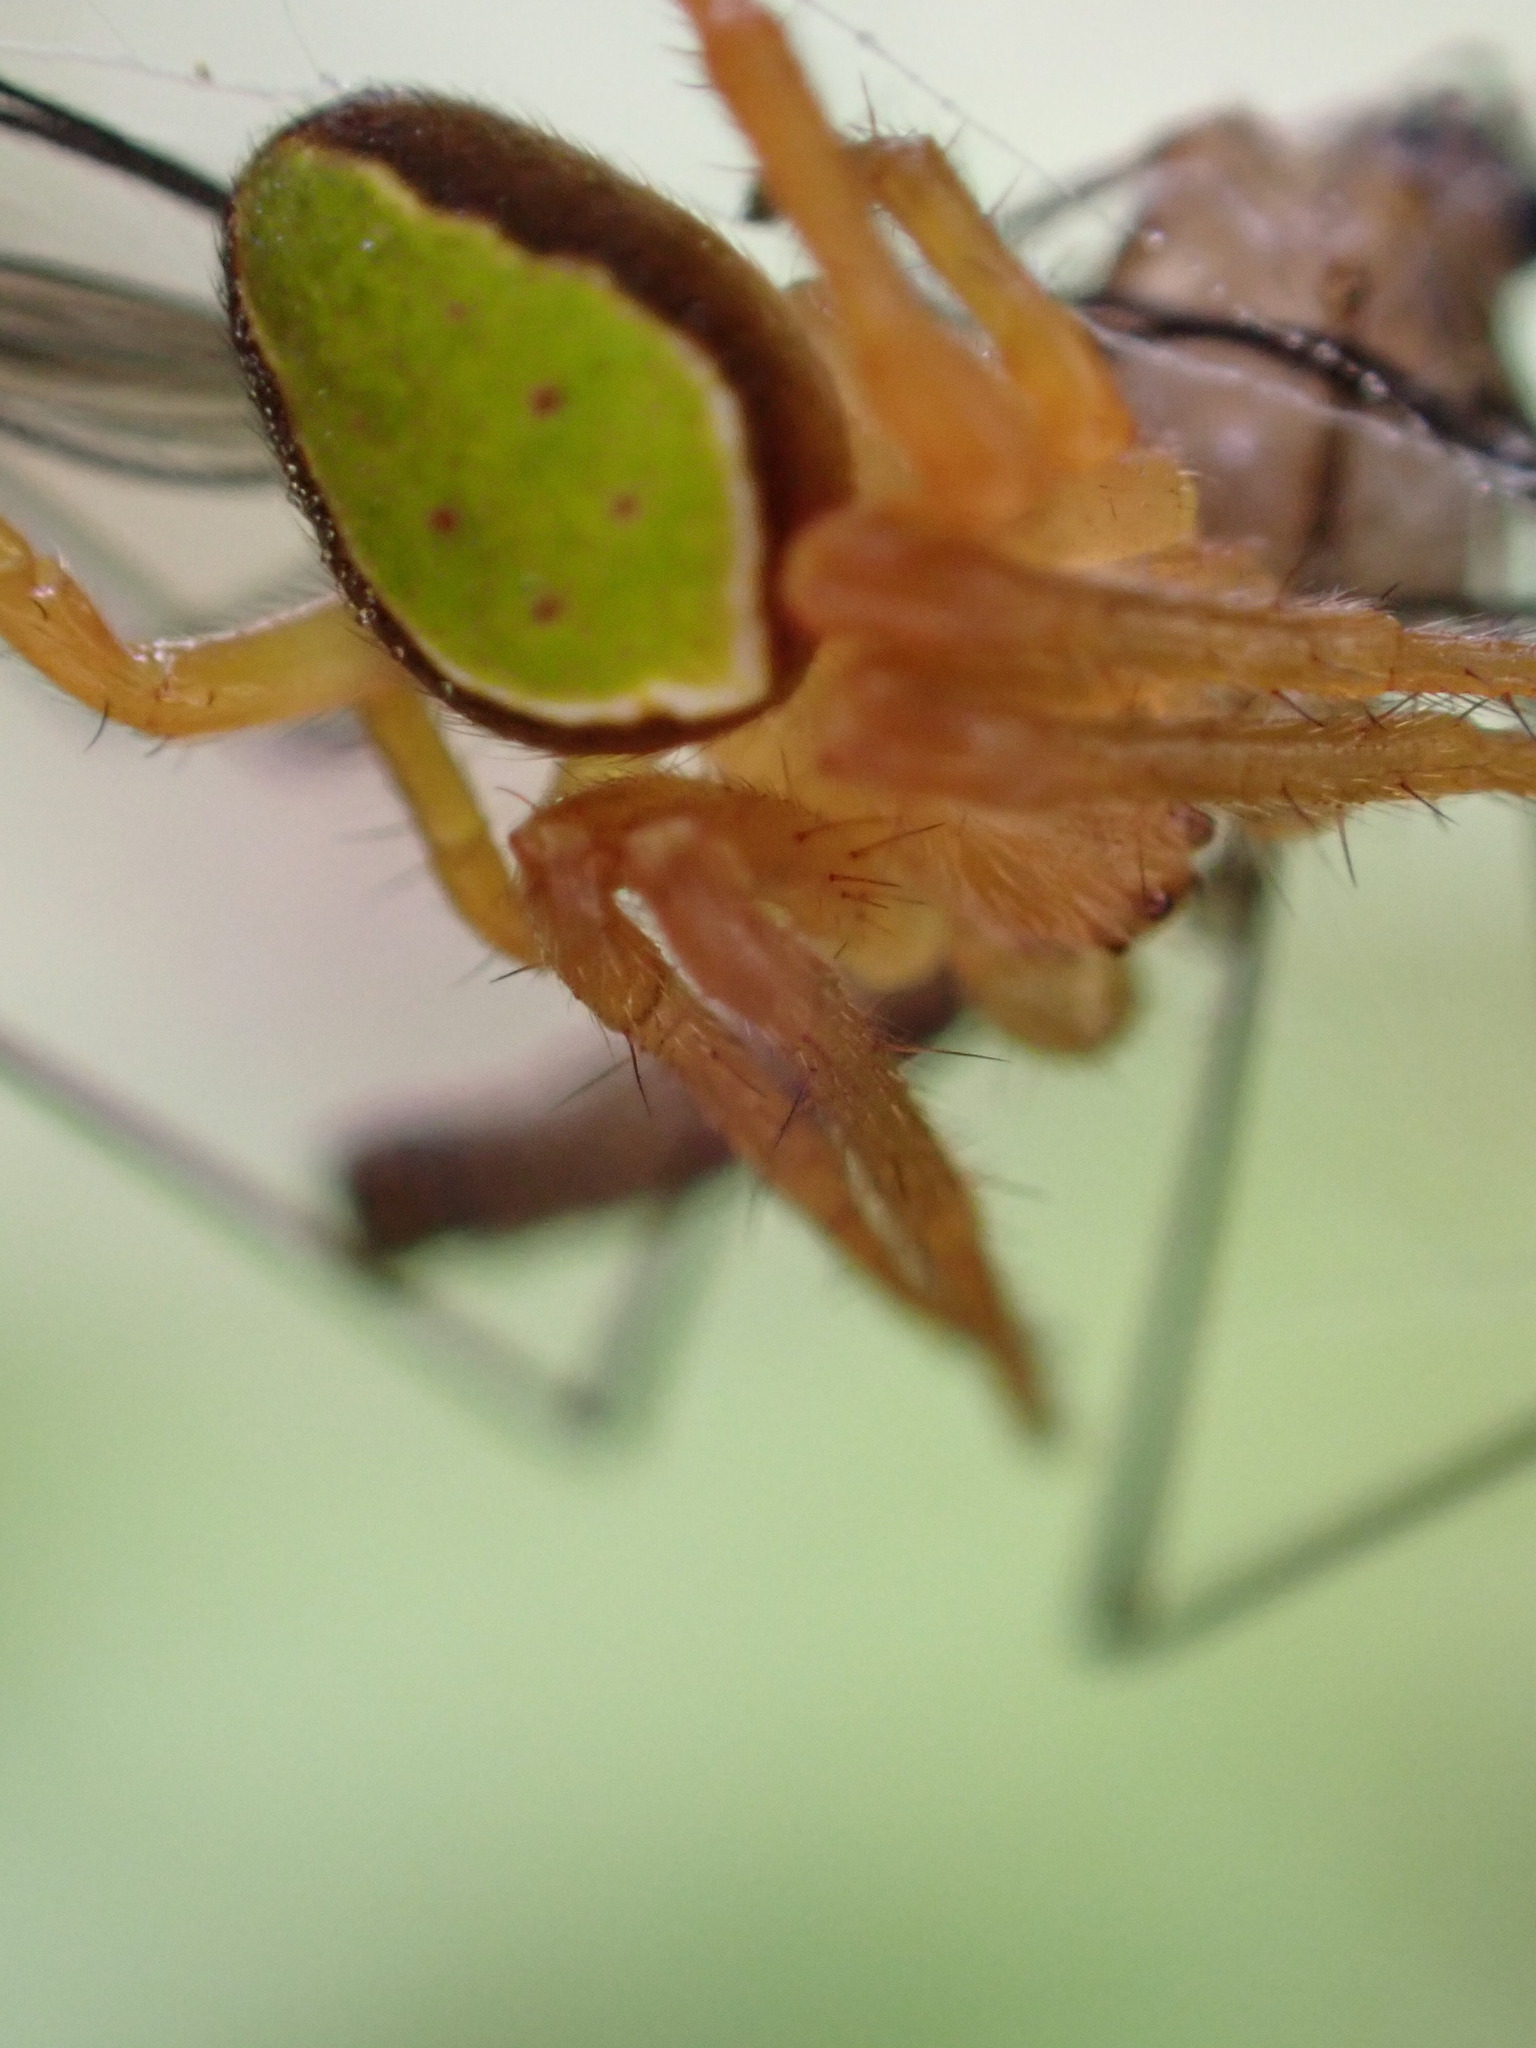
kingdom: Animalia
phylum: Arthropoda
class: Arachnida
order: Araneae
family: Araneidae
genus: Colaranea
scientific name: Colaranea viriditas
